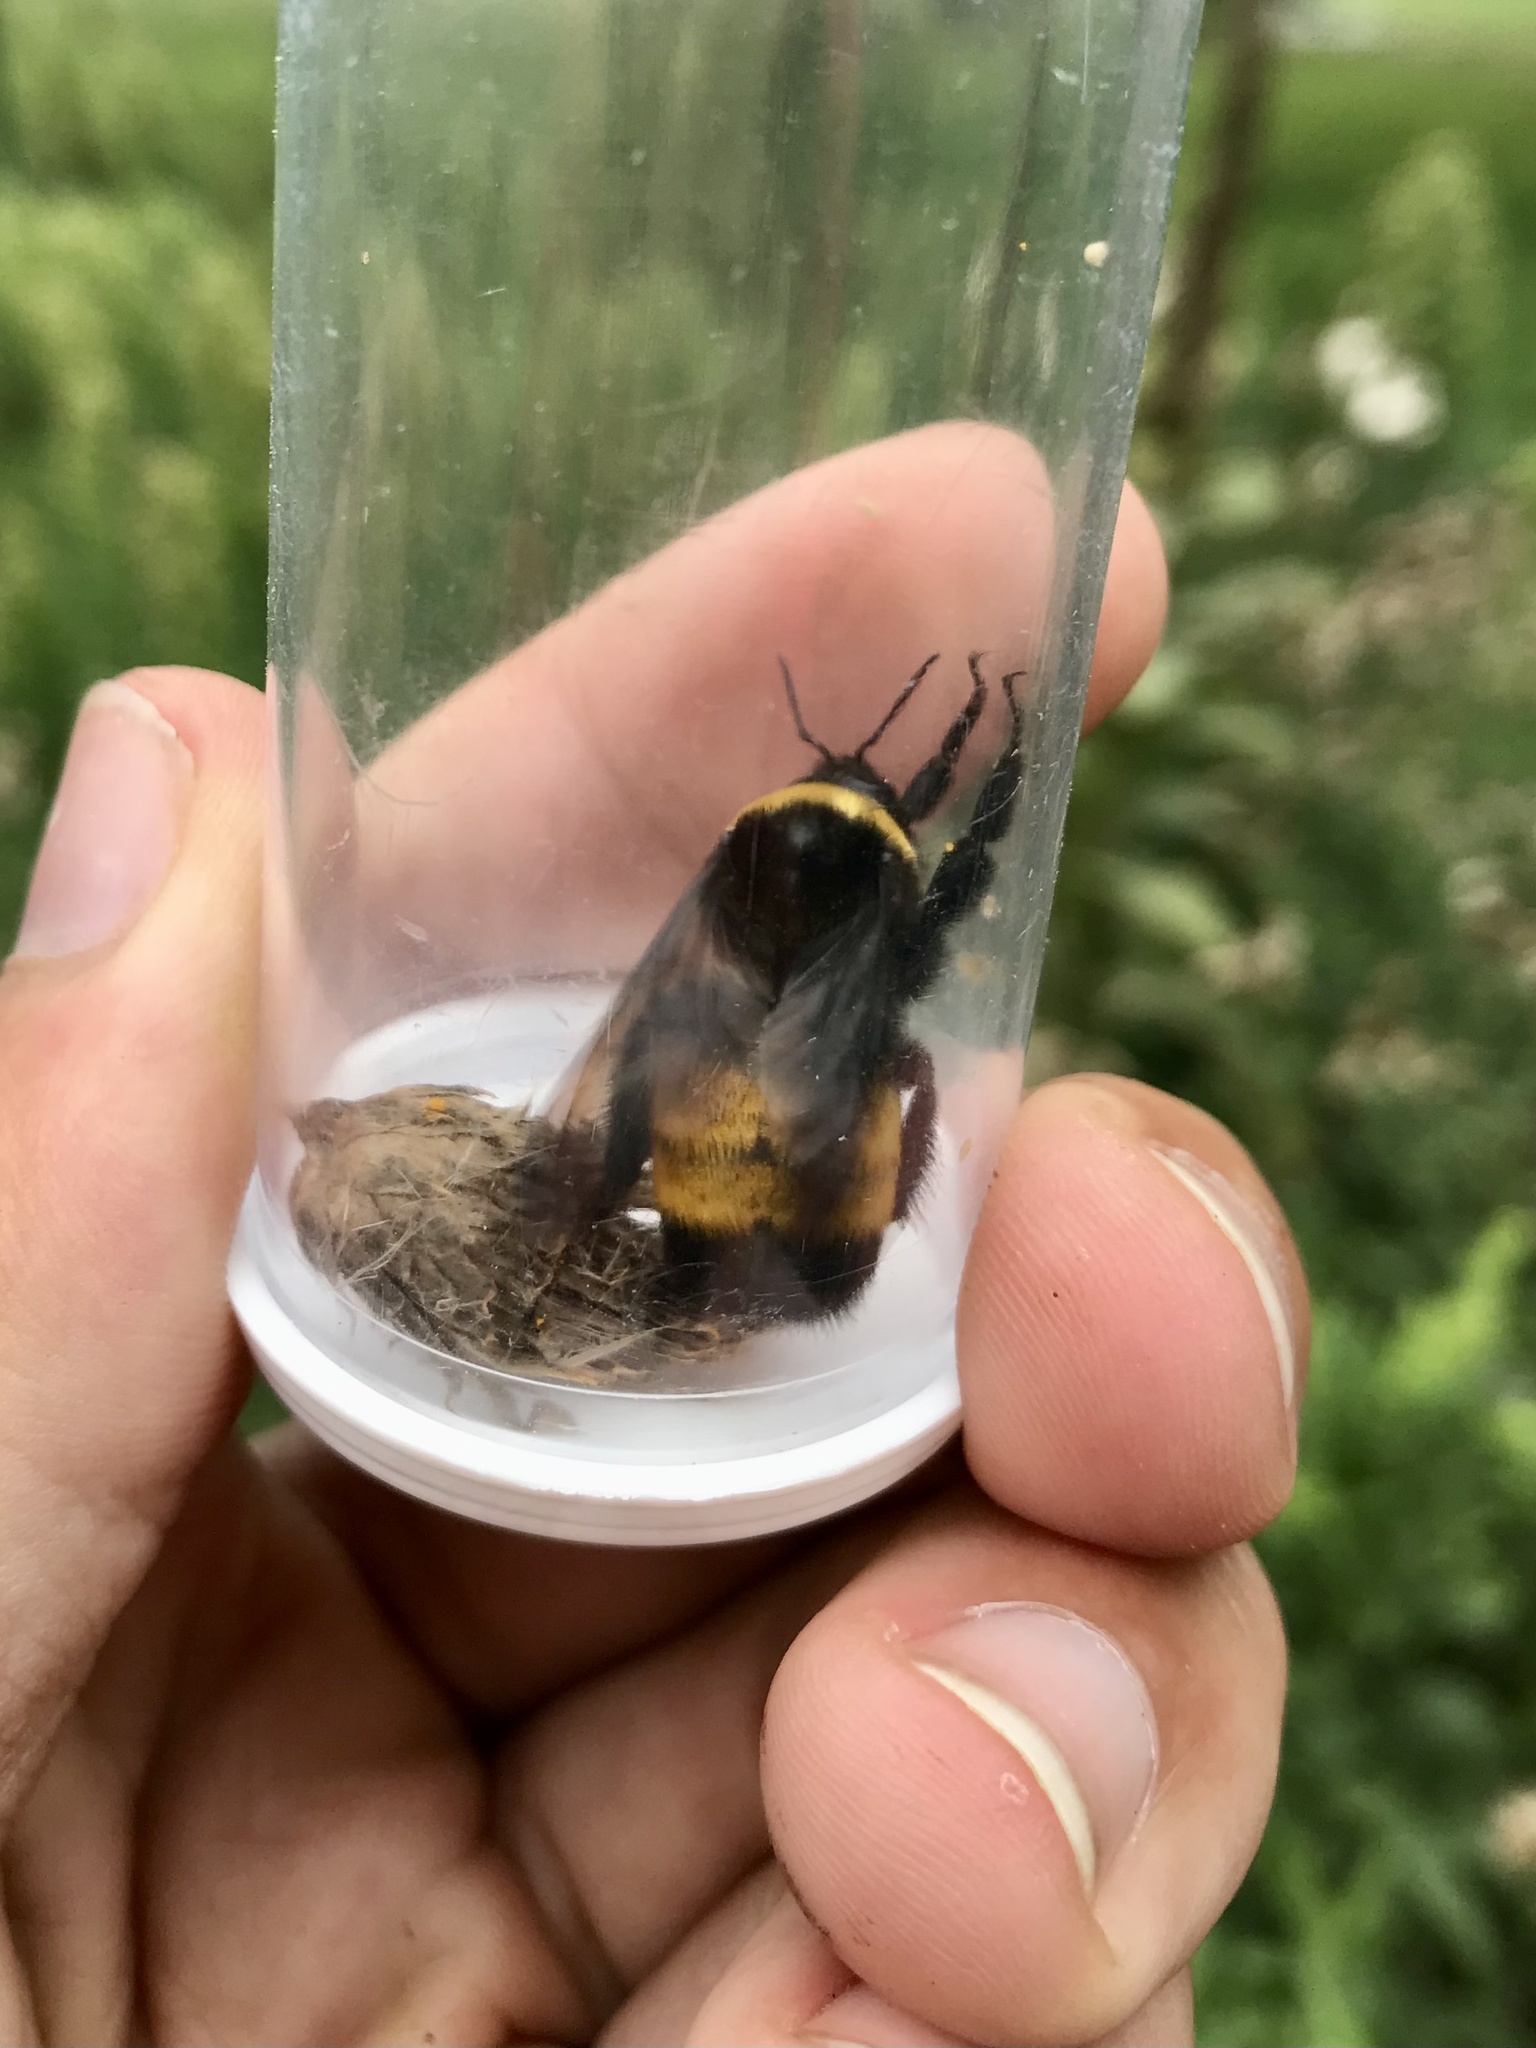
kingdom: Animalia
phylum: Arthropoda
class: Insecta
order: Hymenoptera
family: Apidae
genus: Bombus
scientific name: Bombus auricomus
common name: Black and gold bumble bee
